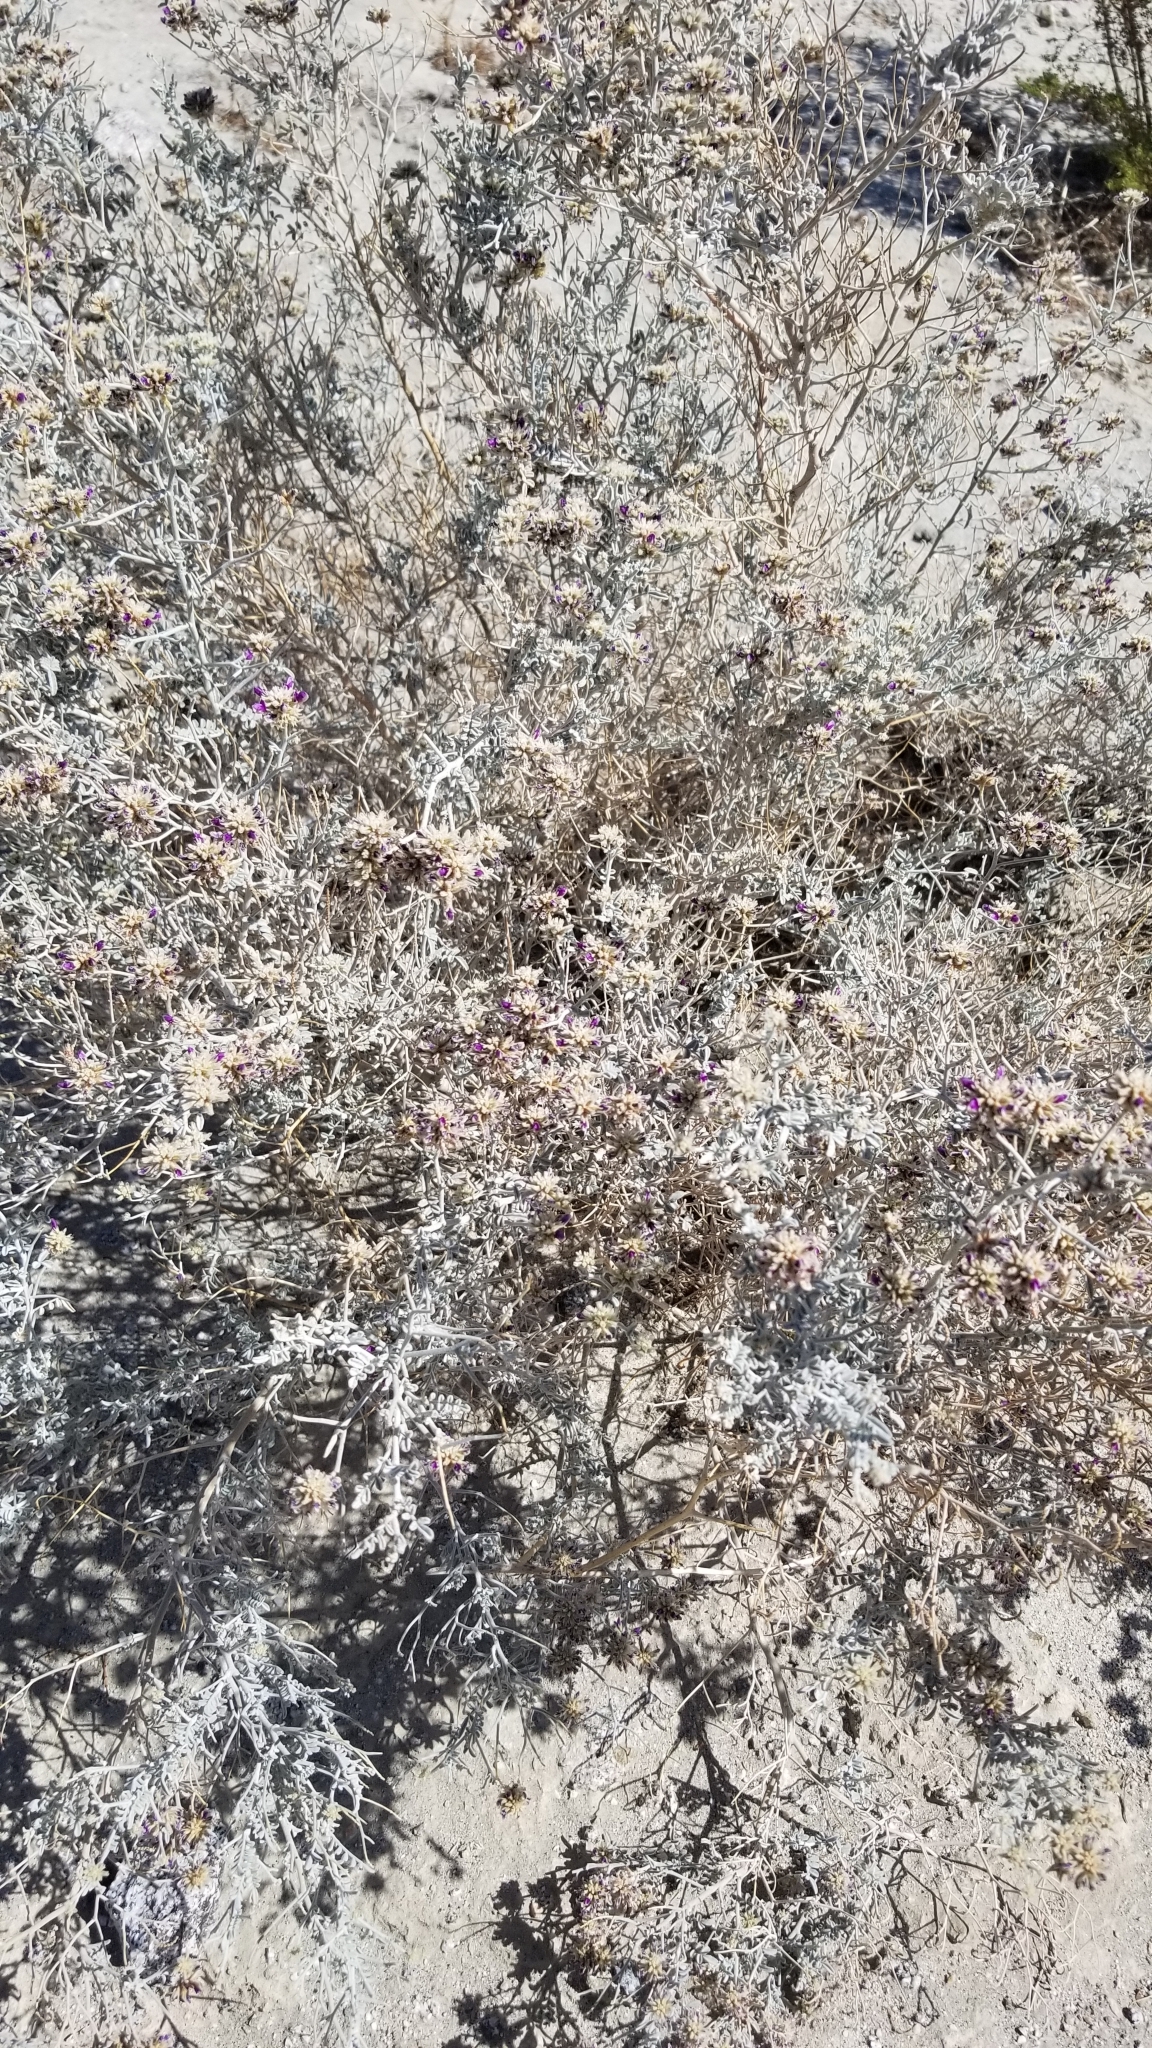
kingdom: Plantae
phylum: Tracheophyta
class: Magnoliopsida
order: Fabales
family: Fabaceae
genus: Psorothamnus
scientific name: Psorothamnus emoryi
